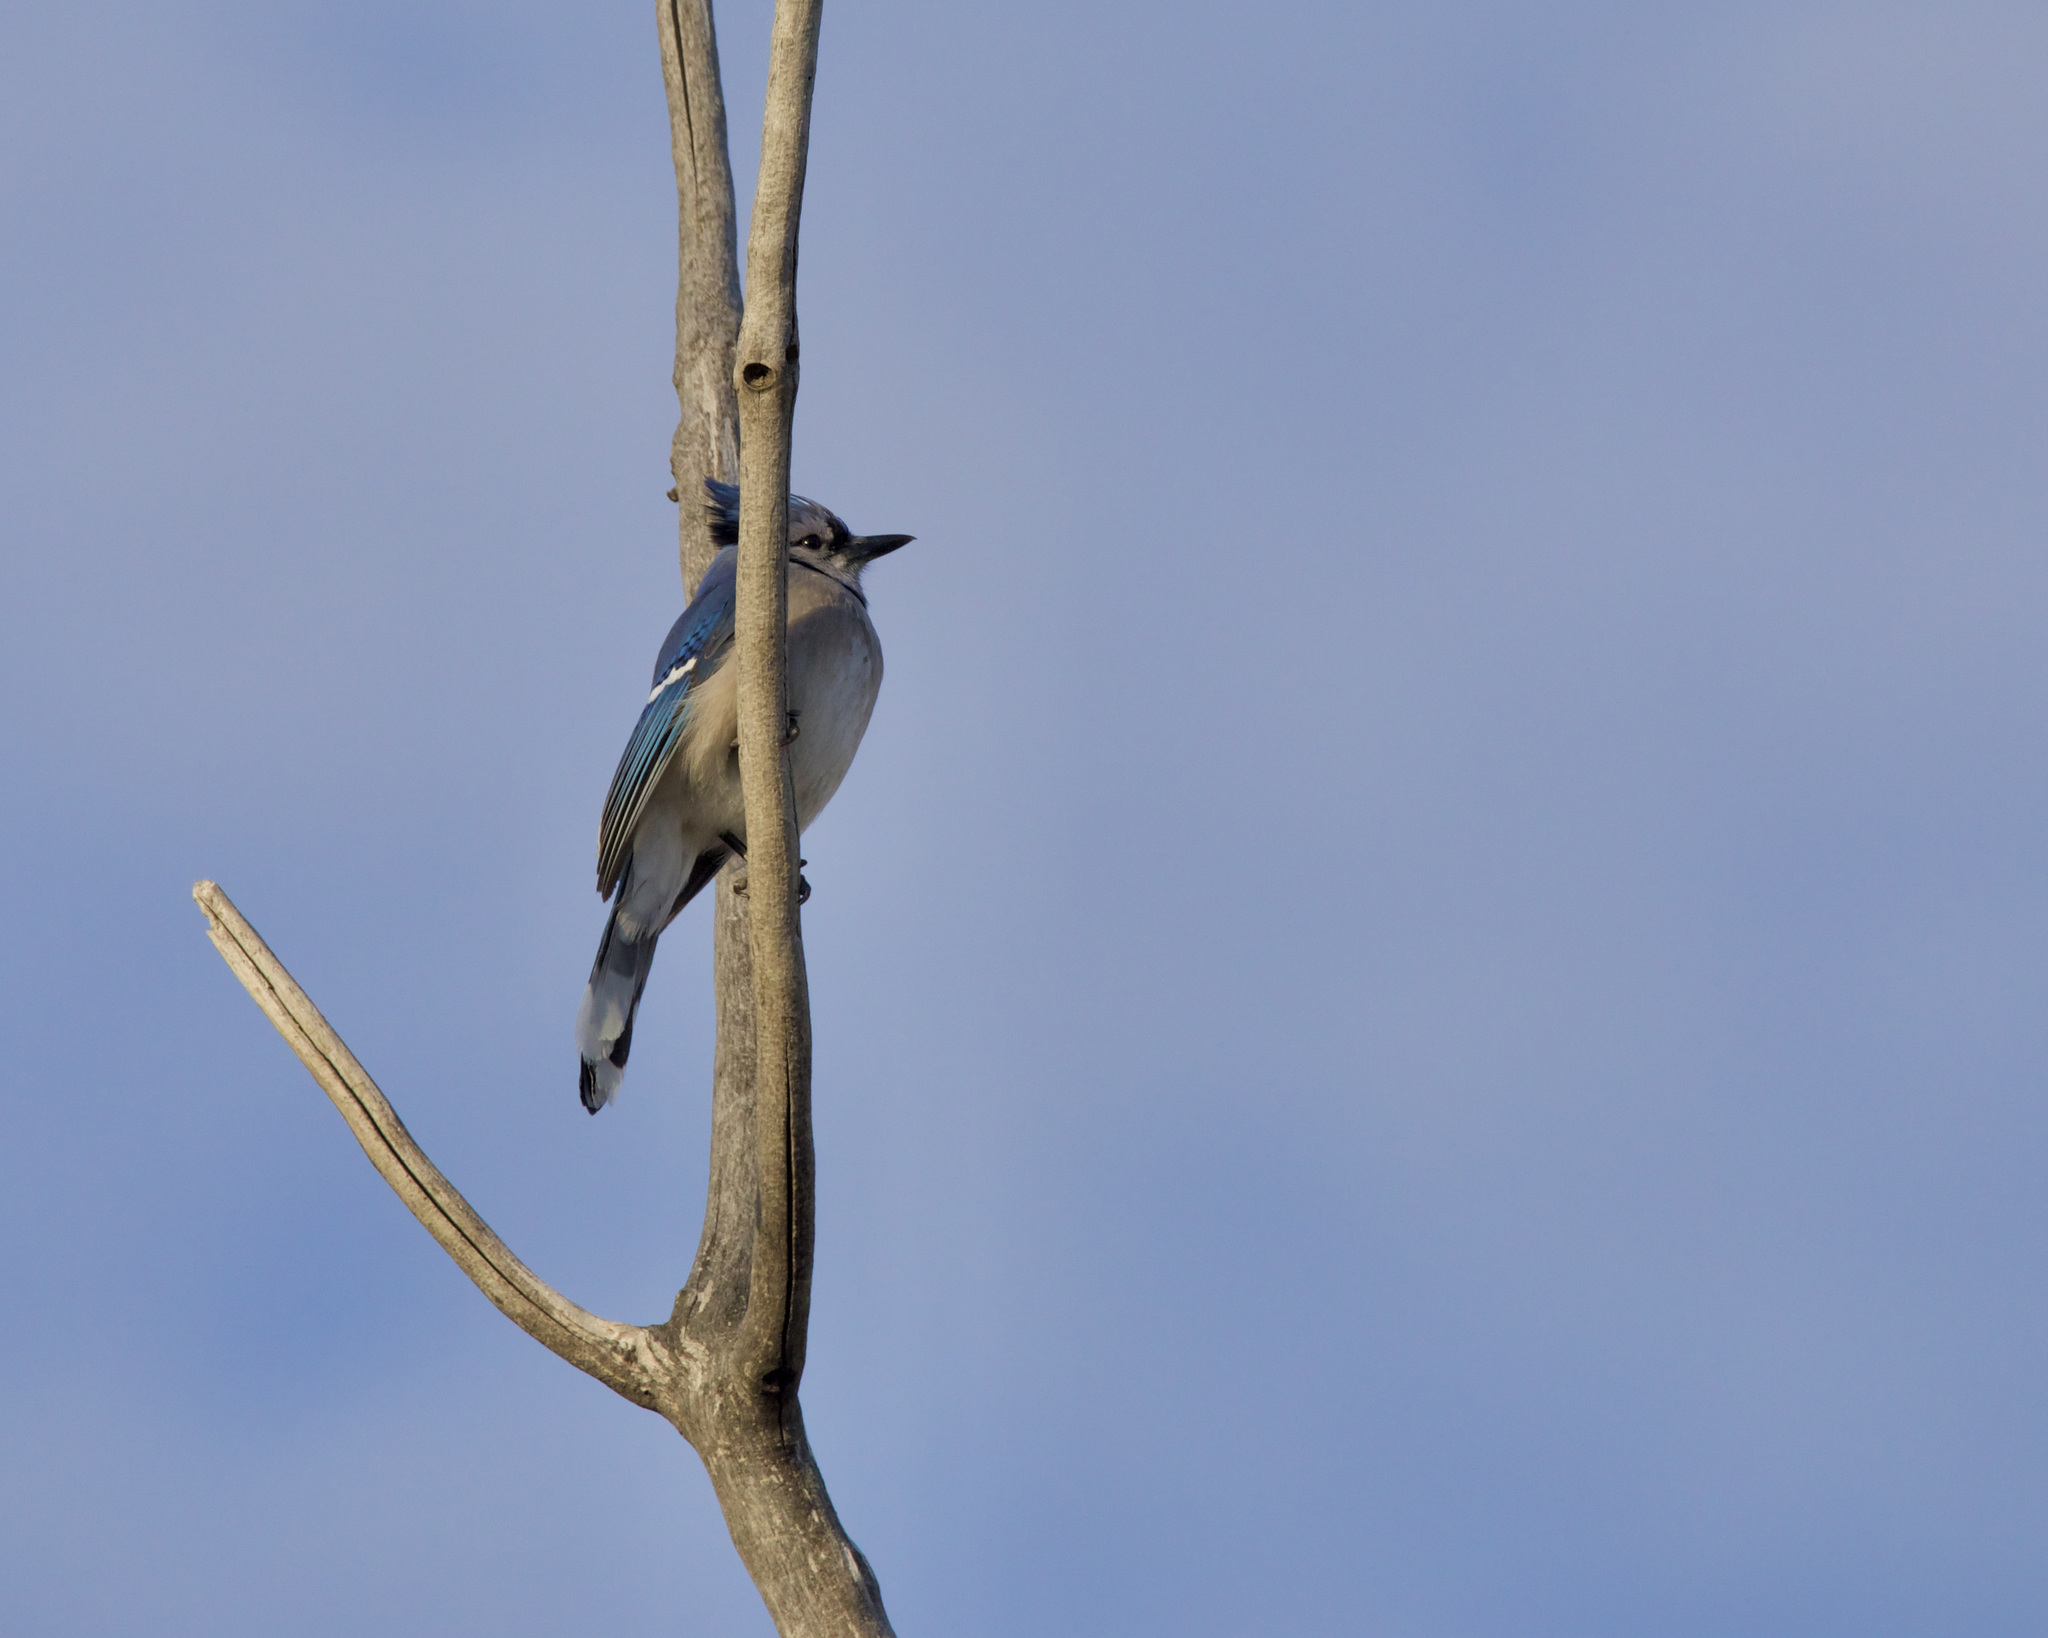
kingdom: Animalia
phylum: Chordata
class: Aves
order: Passeriformes
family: Corvidae
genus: Cyanocitta
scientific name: Cyanocitta cristata
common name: Blue jay
